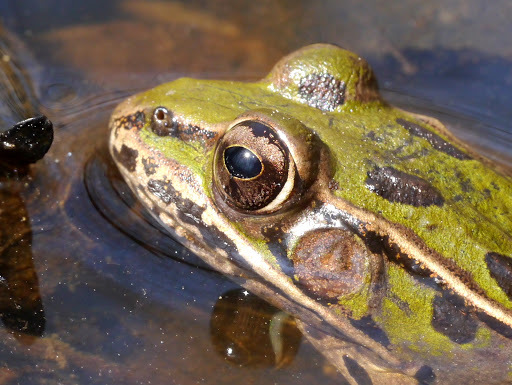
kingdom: Animalia
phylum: Chordata
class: Amphibia
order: Anura
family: Ranidae
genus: Lithobates
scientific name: Lithobates sphenocephalus
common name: Southern leopard frog
